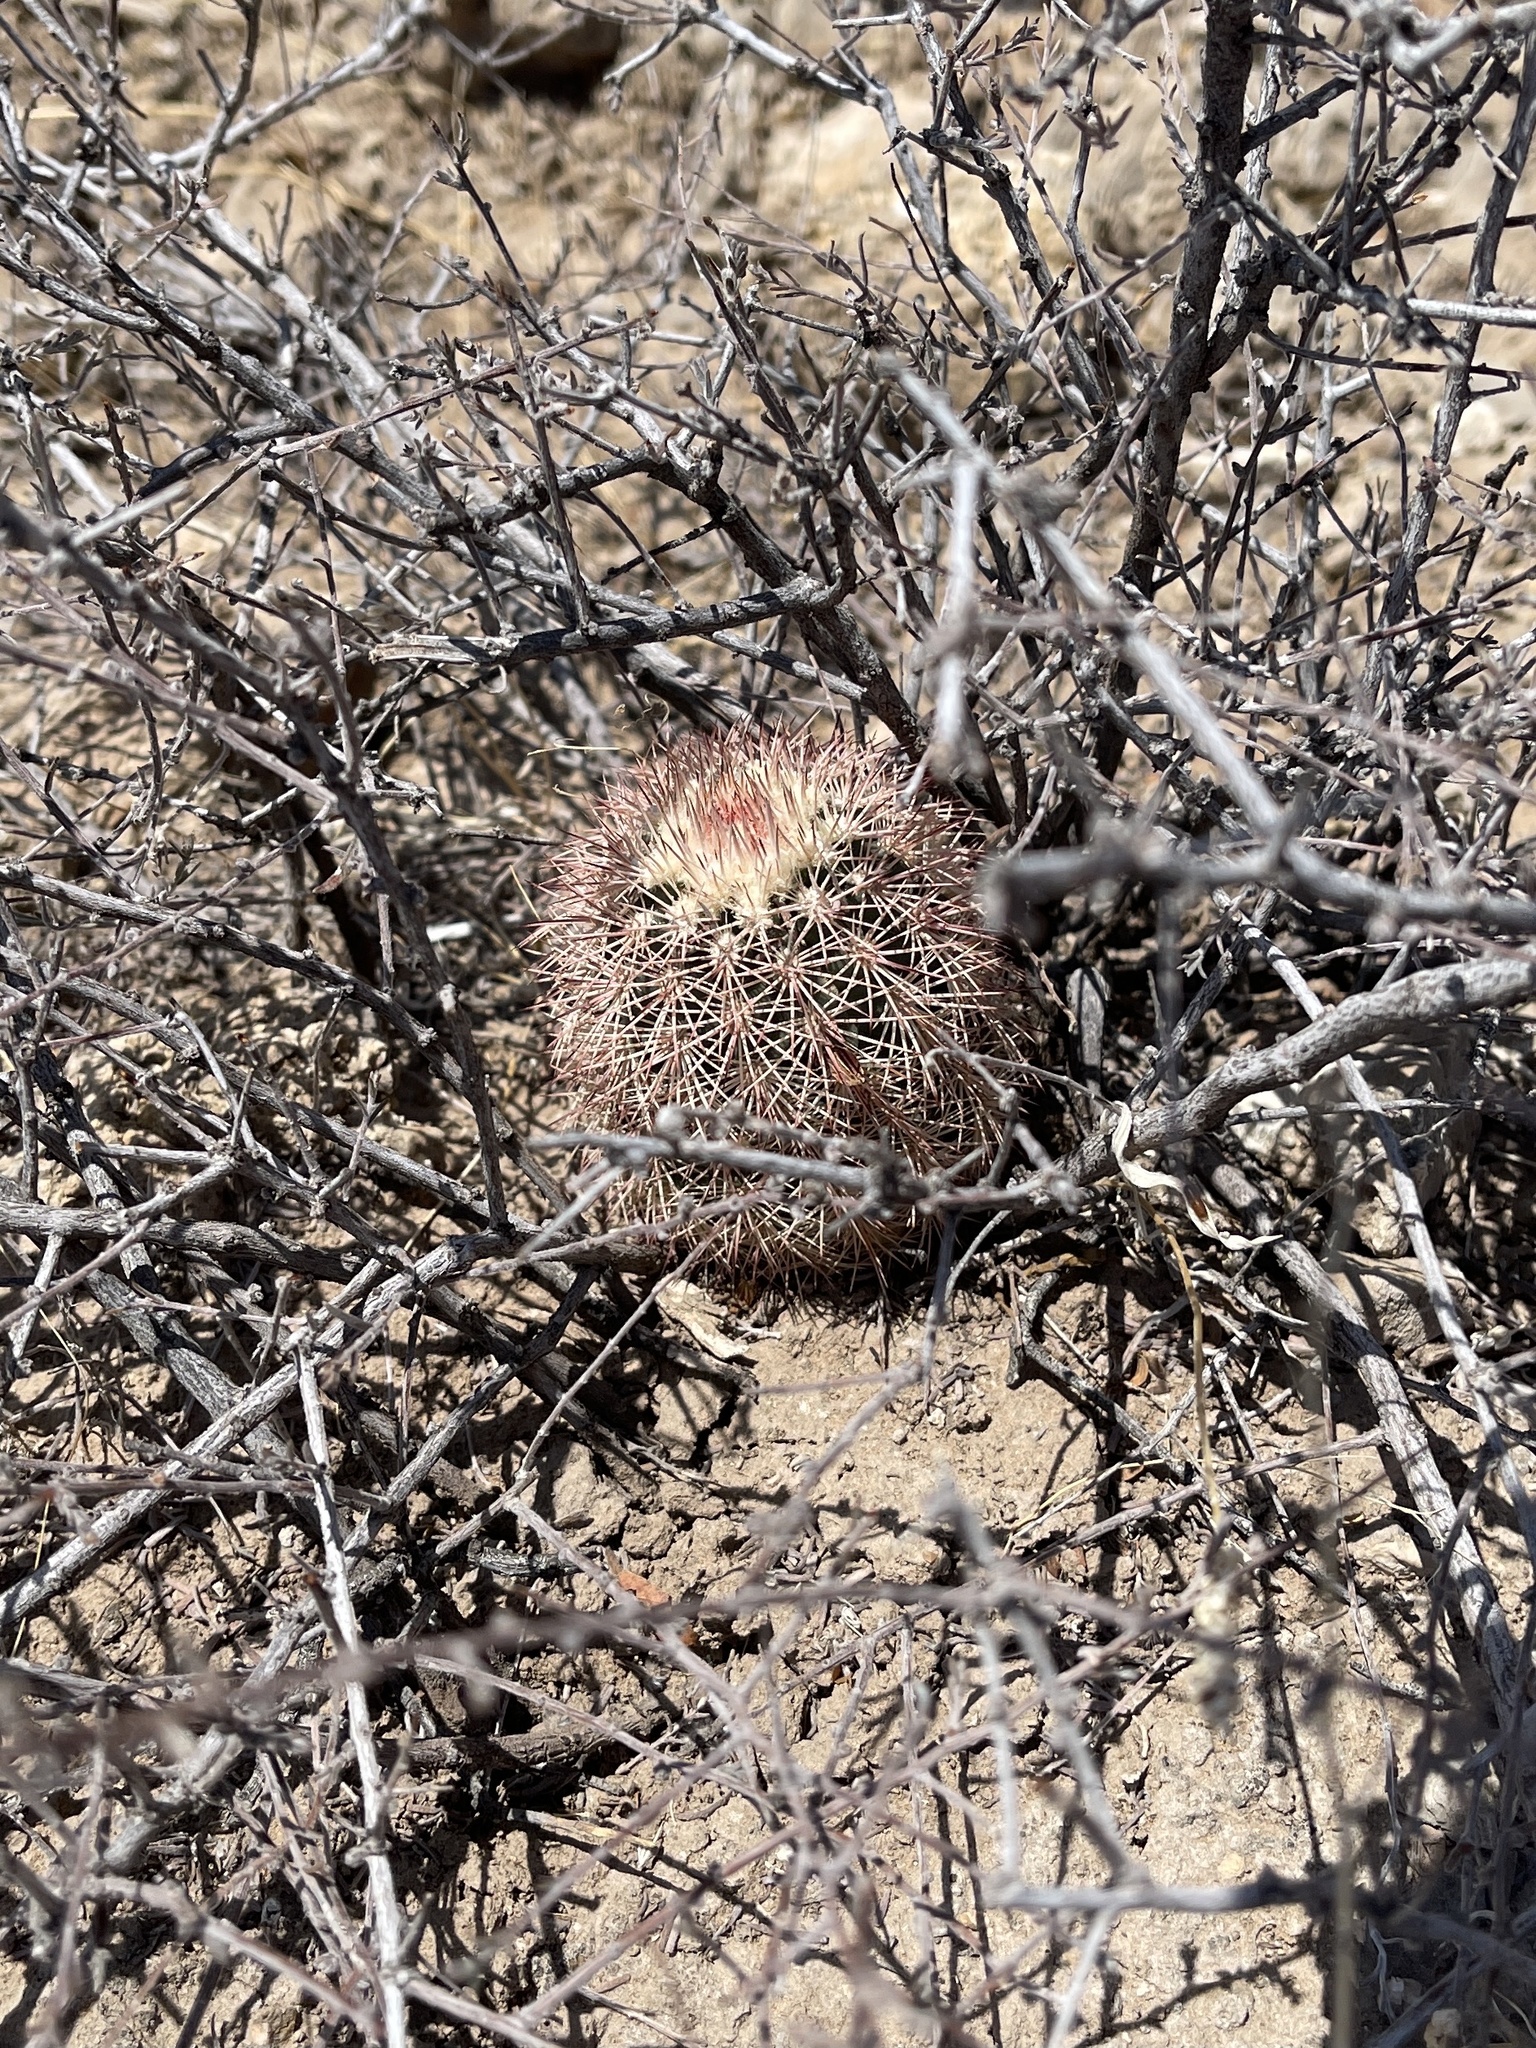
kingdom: Plantae
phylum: Tracheophyta
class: Magnoliopsida
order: Caryophyllales
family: Cactaceae
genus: Echinocereus
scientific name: Echinocereus dasyacanthus
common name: Spiny hedgehog cactus
